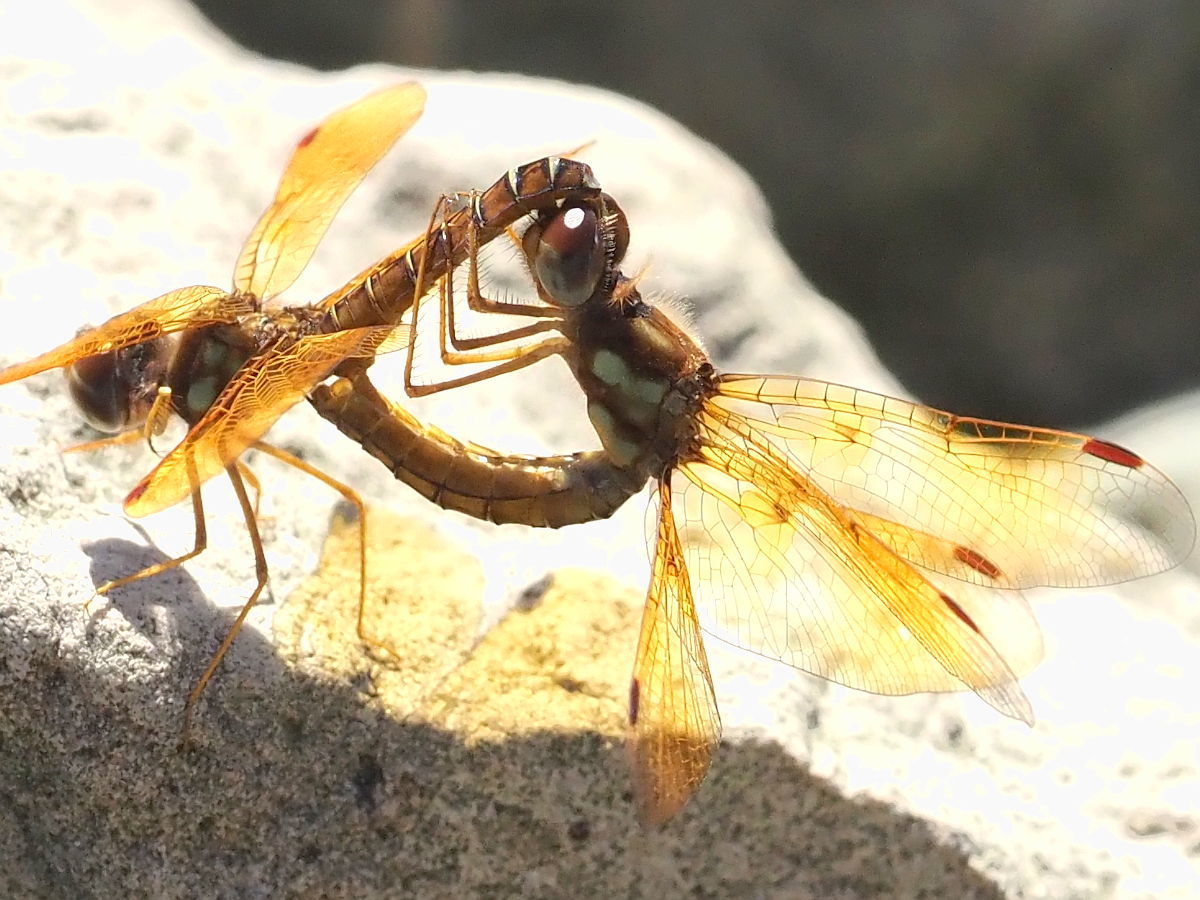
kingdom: Animalia
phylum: Arthropoda
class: Insecta
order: Odonata
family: Libellulidae
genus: Perithemis
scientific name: Perithemis tenera
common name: Eastern amberwing
